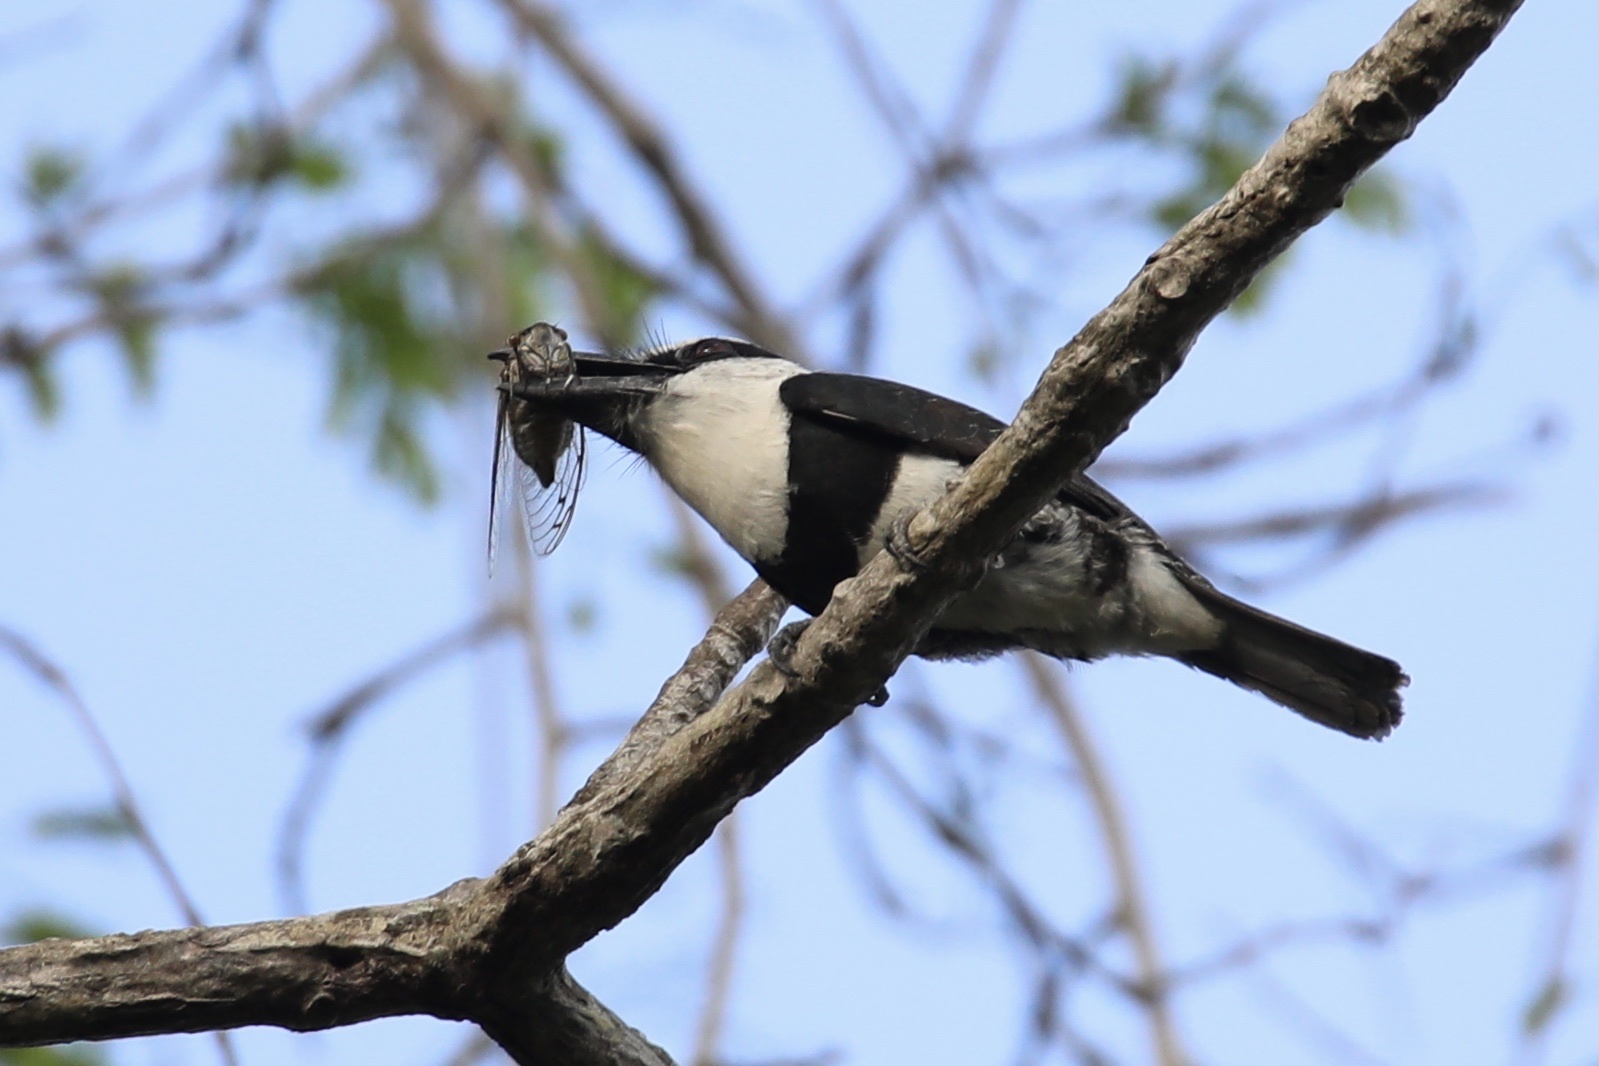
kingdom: Animalia
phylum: Chordata
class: Aves
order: Piciformes
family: Bucconidae
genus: Notharchus
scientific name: Notharchus hyperrhynchus
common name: White-necked puffbird
